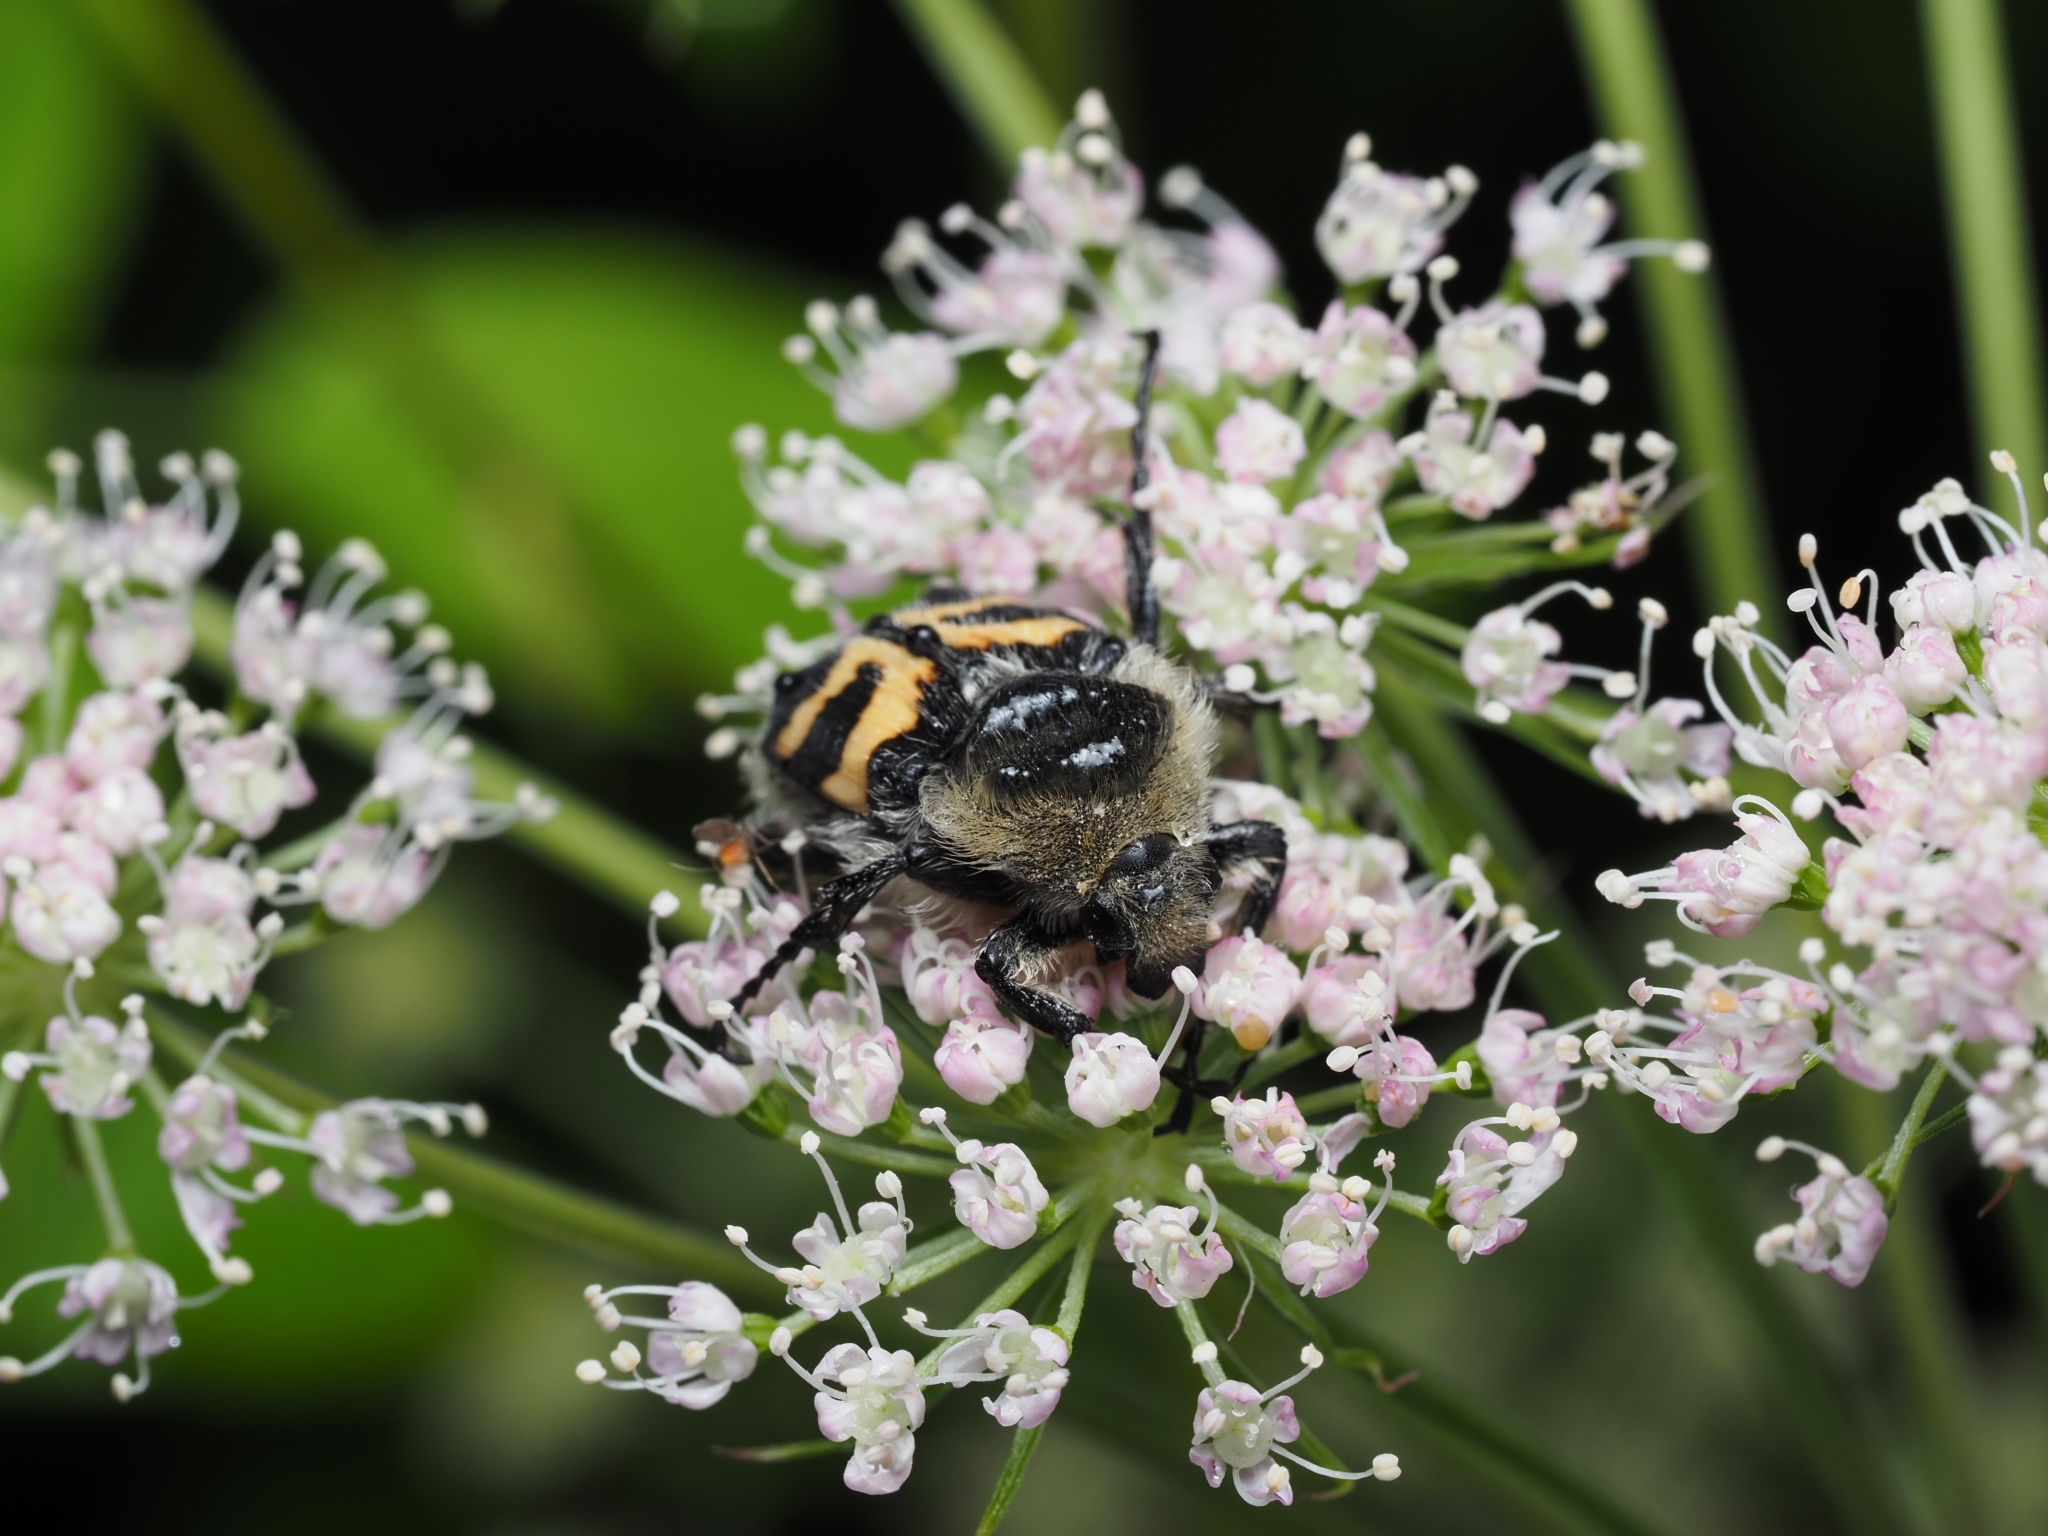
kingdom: Animalia
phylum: Arthropoda
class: Insecta
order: Coleoptera
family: Scarabaeidae
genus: Trichius
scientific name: Trichius fasciatus
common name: Bee beetle
